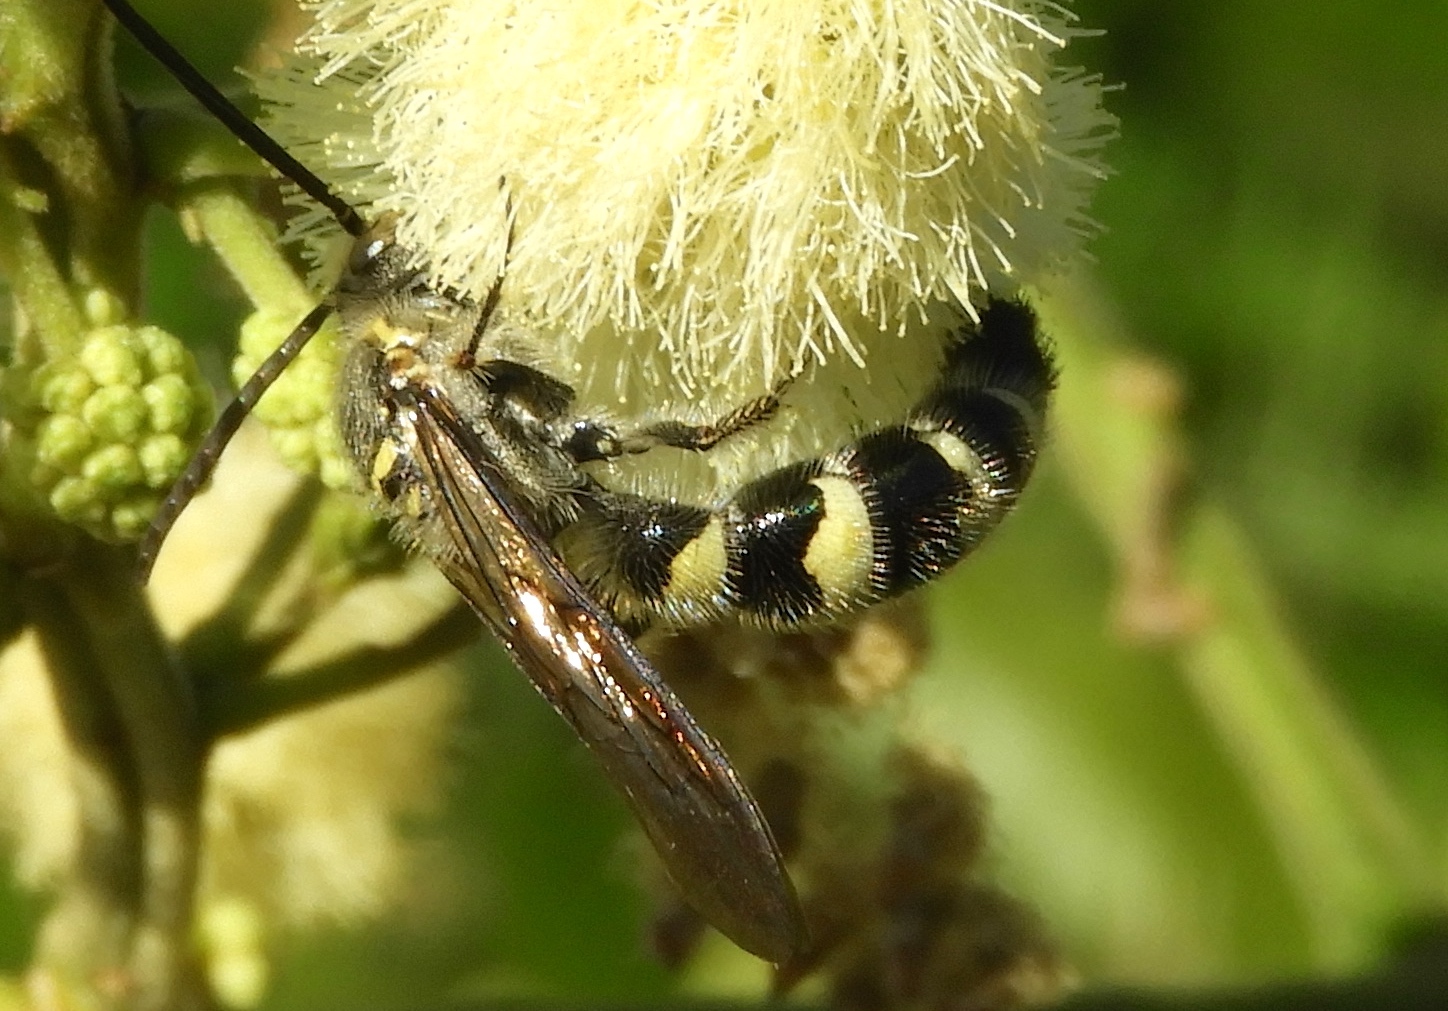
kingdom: Animalia
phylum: Arthropoda
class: Insecta
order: Hymenoptera
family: Scoliidae
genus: Dielis
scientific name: Dielis tolteca
